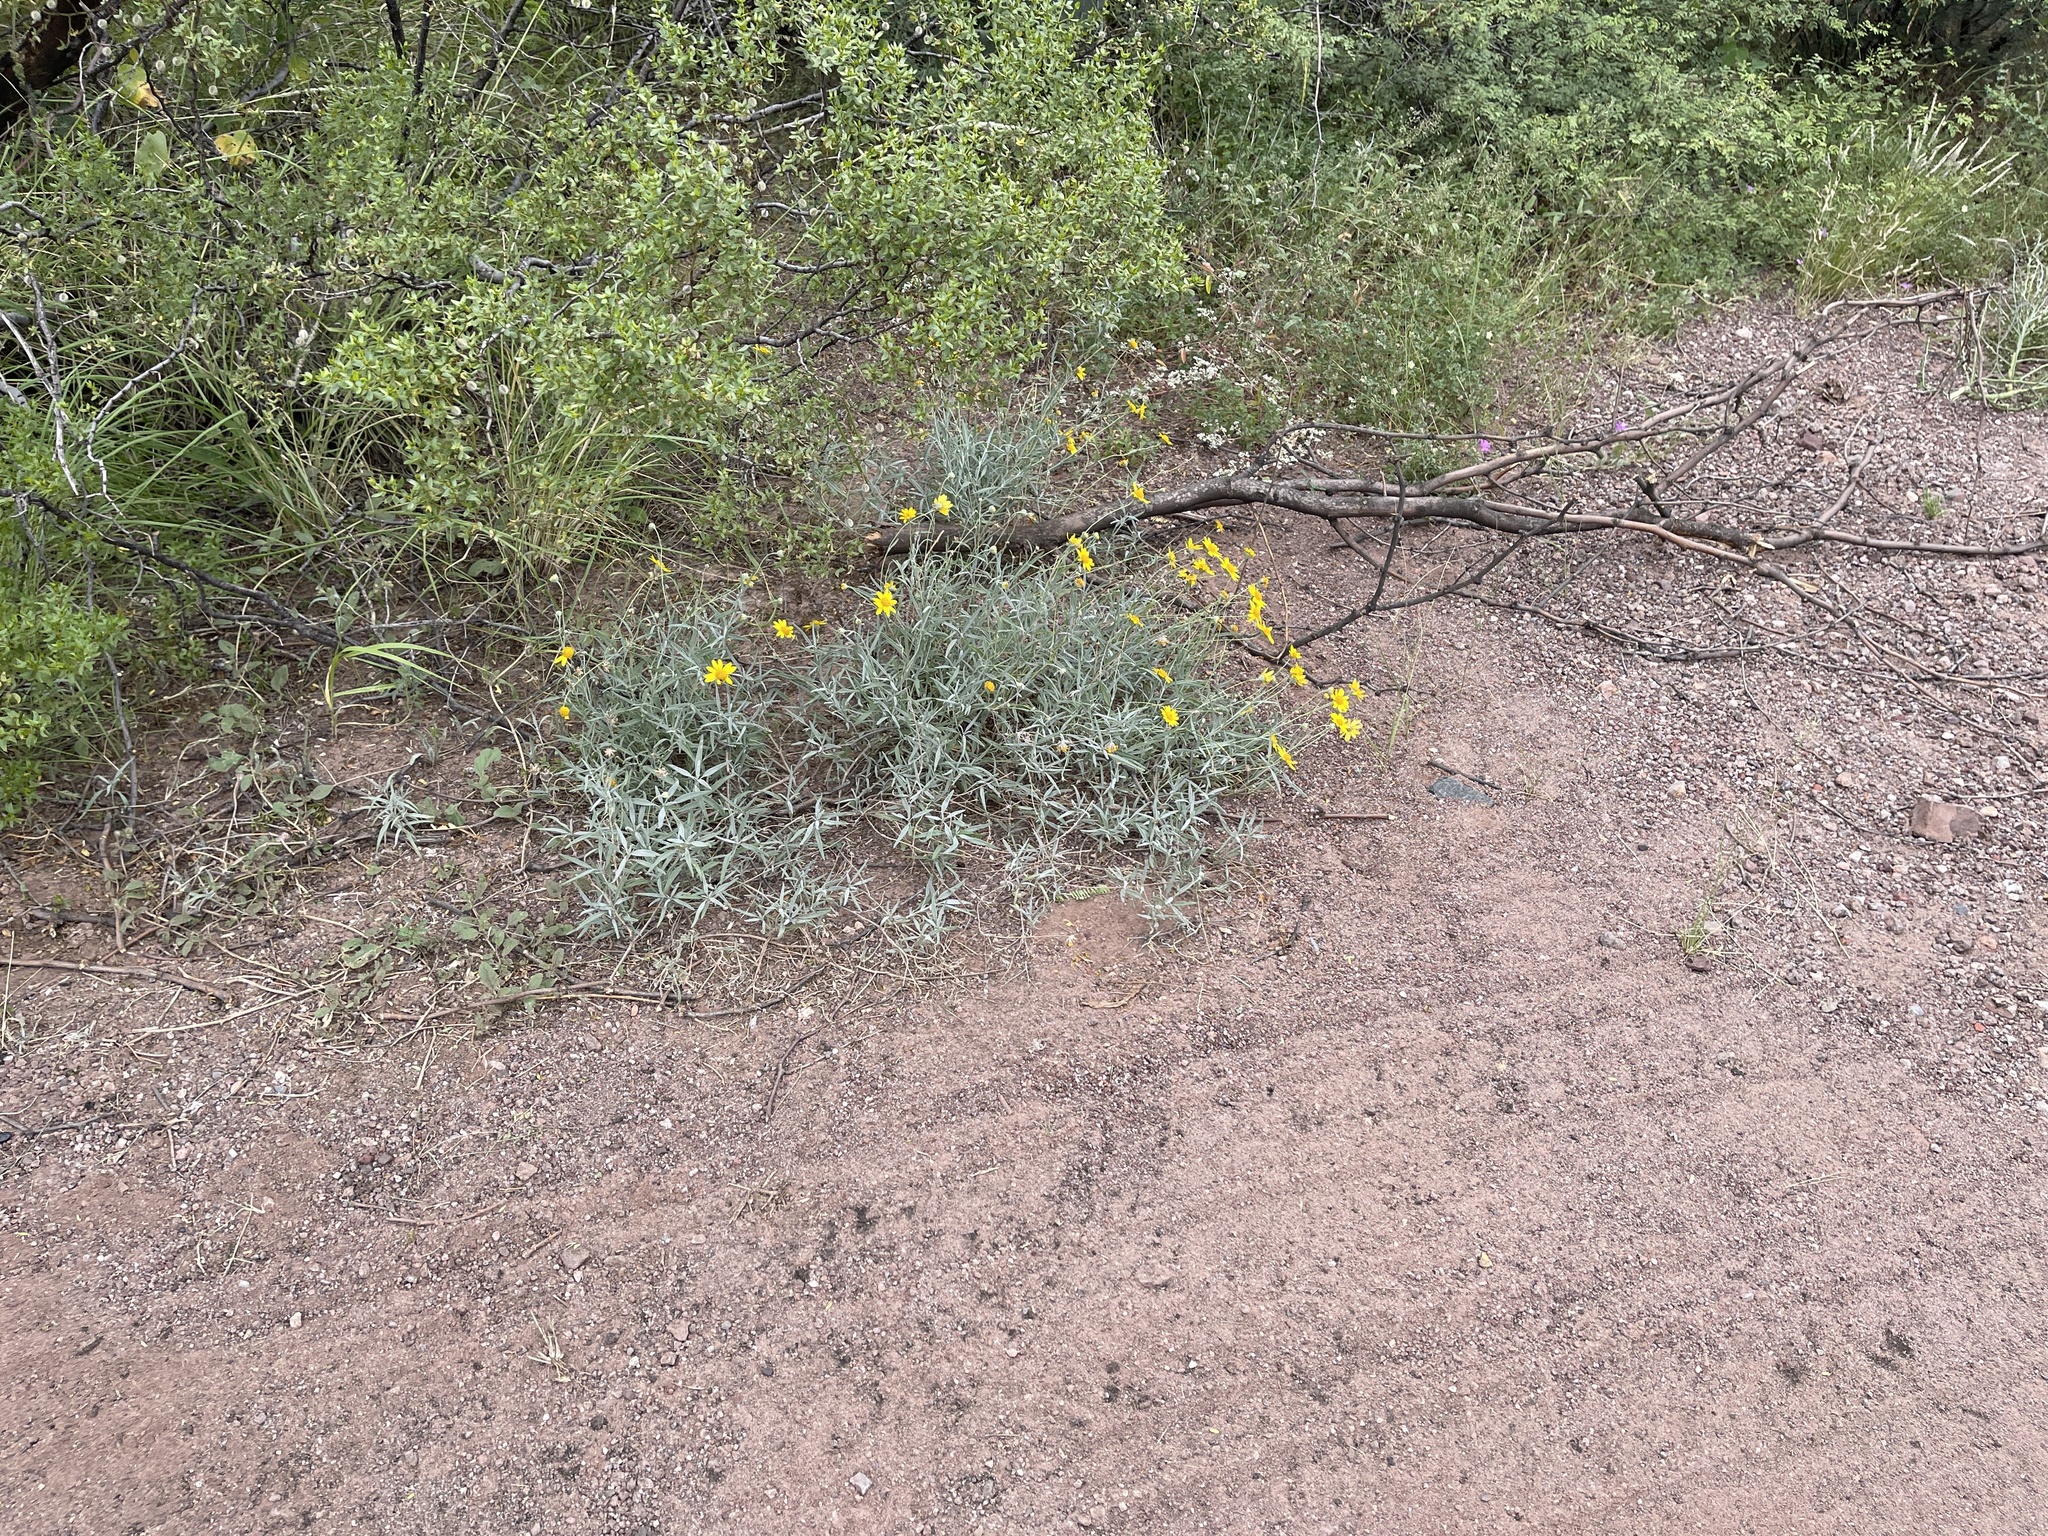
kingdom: Plantae
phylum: Tracheophyta
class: Magnoliopsida
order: Asterales
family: Asteraceae
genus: Picradeniopsis
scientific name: Picradeniopsis absinthifolia
